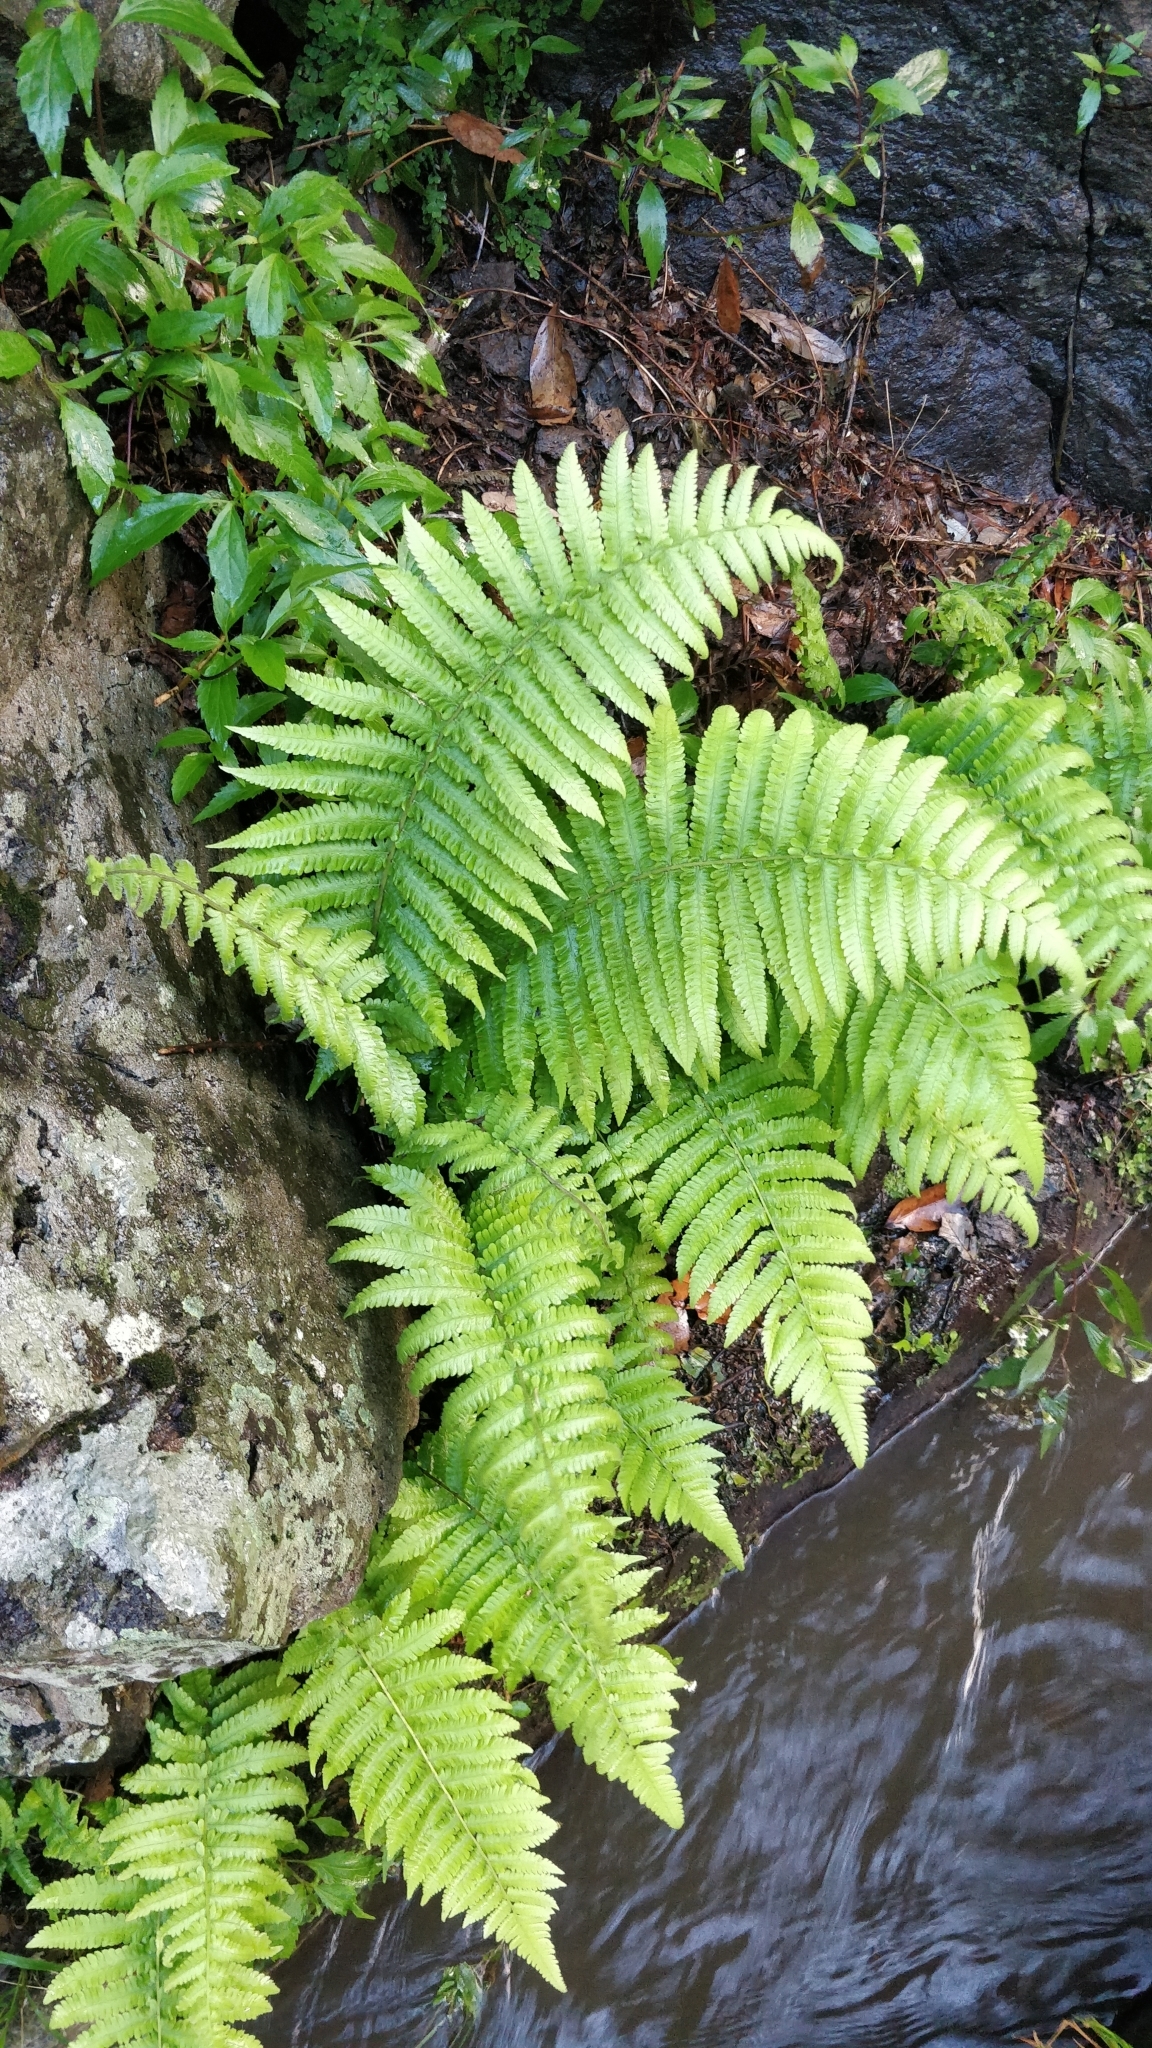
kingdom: Plantae
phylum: Tracheophyta
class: Polypodiopsida
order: Polypodiales
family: Thelypteridaceae
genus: Christella
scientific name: Christella dentata
